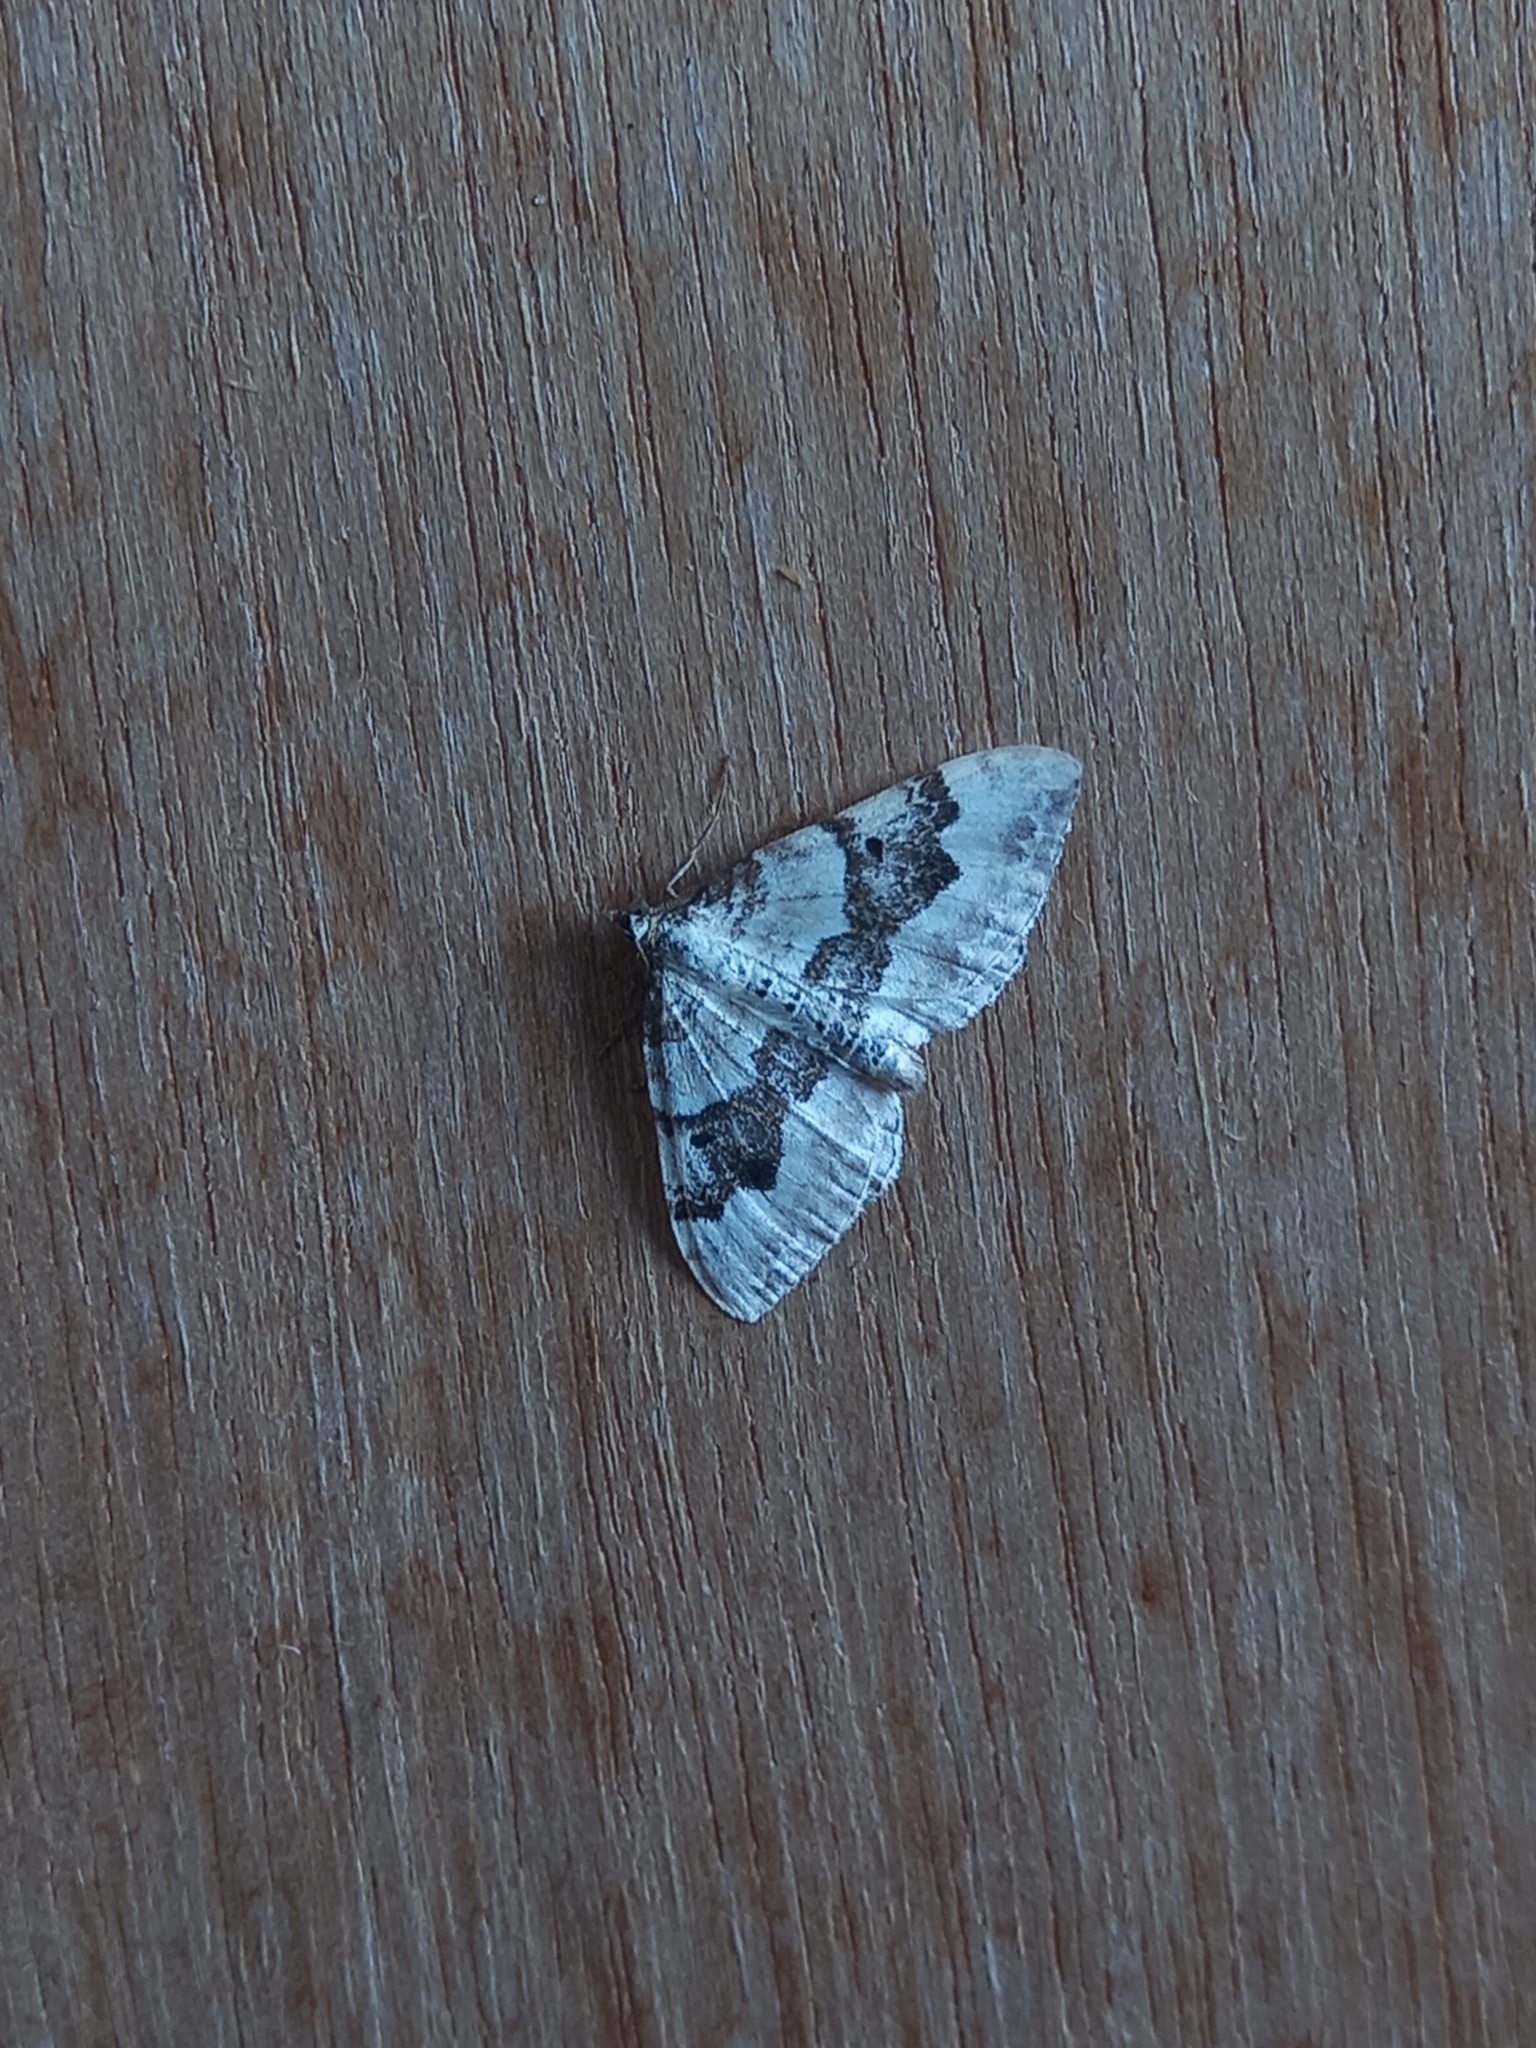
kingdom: Animalia
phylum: Arthropoda
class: Insecta
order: Lepidoptera
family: Geometridae
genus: Xanthorhoe
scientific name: Xanthorhoe montanata
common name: Silver-ground carpet
